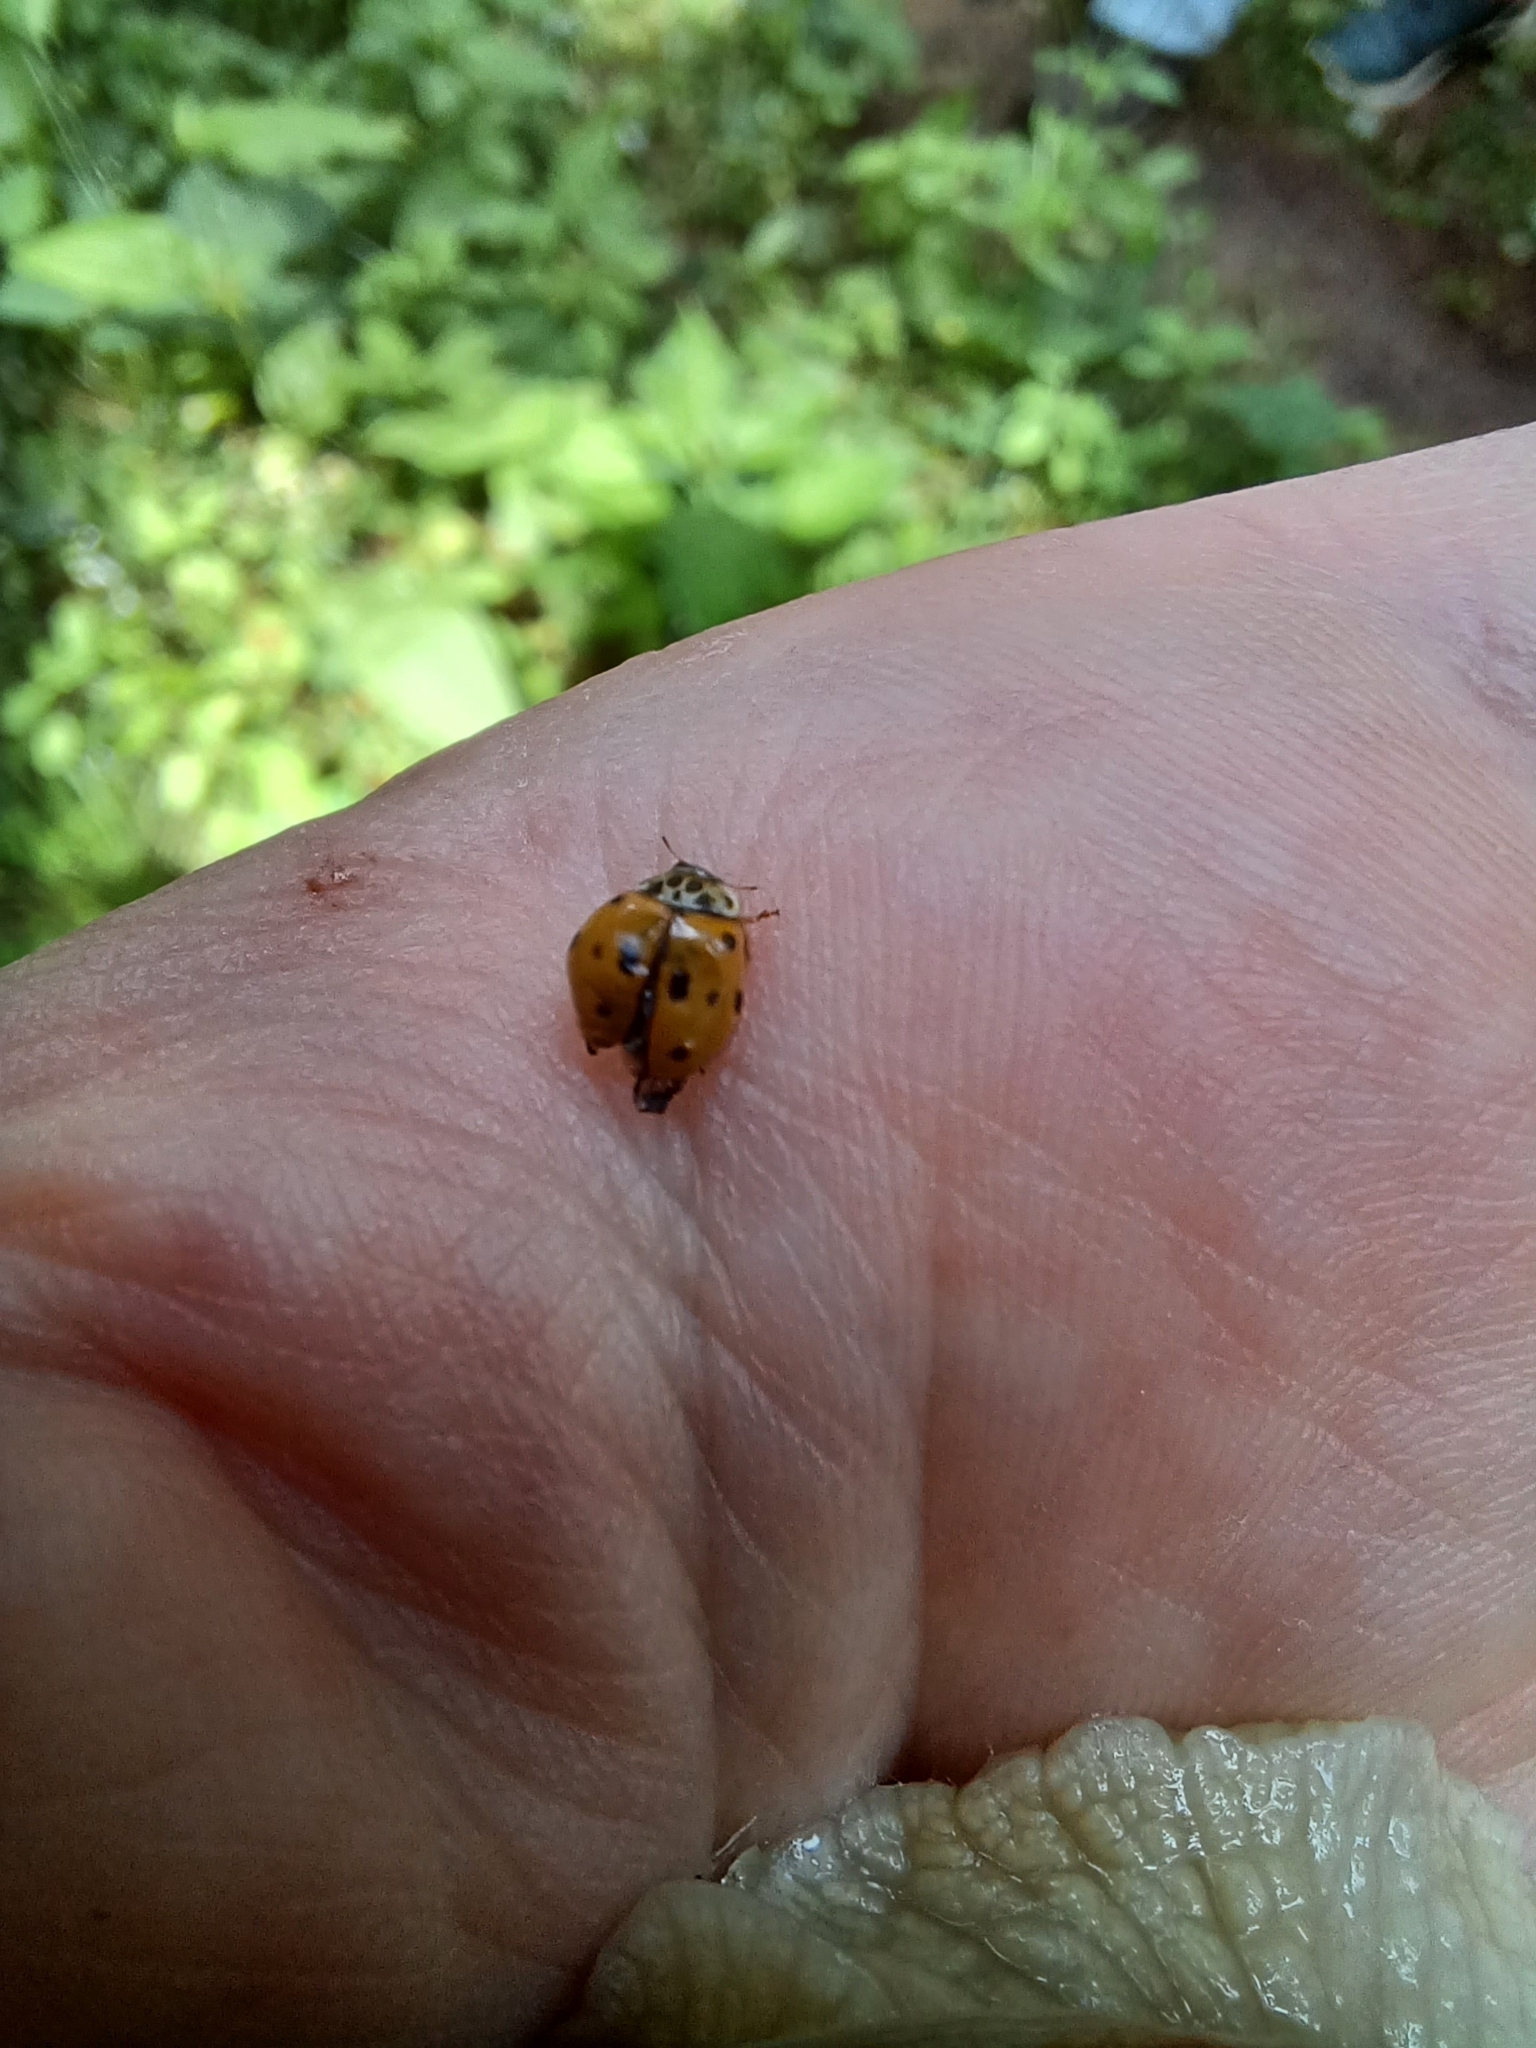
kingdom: Animalia
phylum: Arthropoda
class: Insecta
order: Coleoptera
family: Coccinellidae
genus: Adalia
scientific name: Adalia decempunctata
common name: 10-spot ladybird
